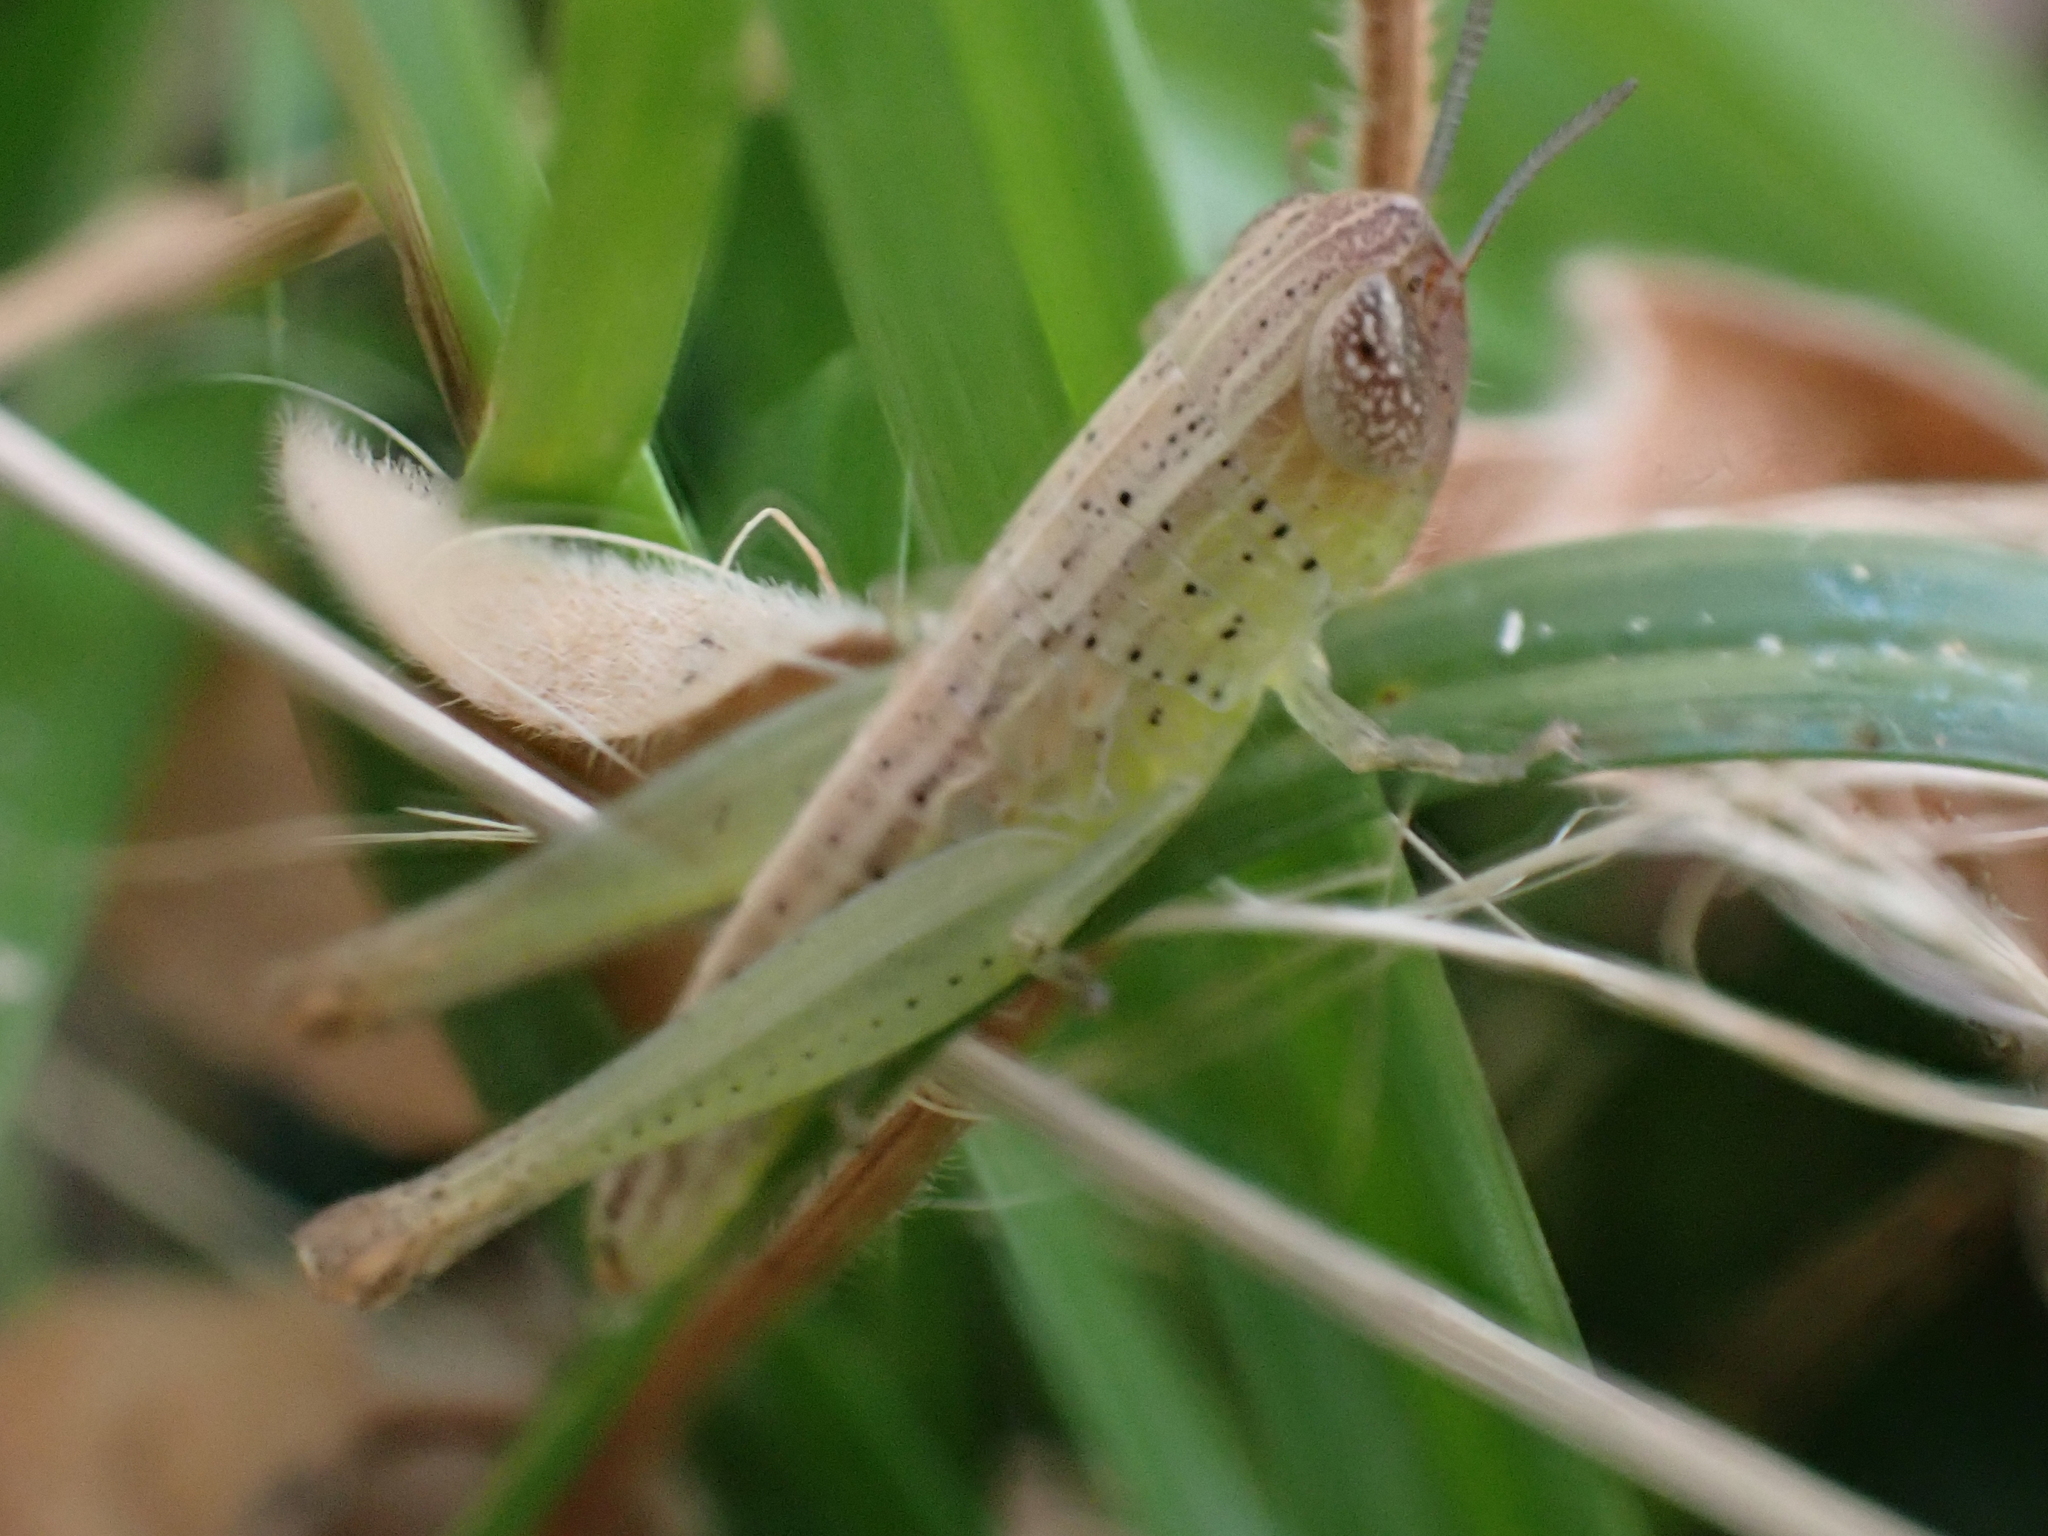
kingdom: Animalia
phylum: Arthropoda
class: Insecta
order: Orthoptera
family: Acrididae
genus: Amblytropidia
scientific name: Amblytropidia mysteca
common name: Brown winter grasshopper
